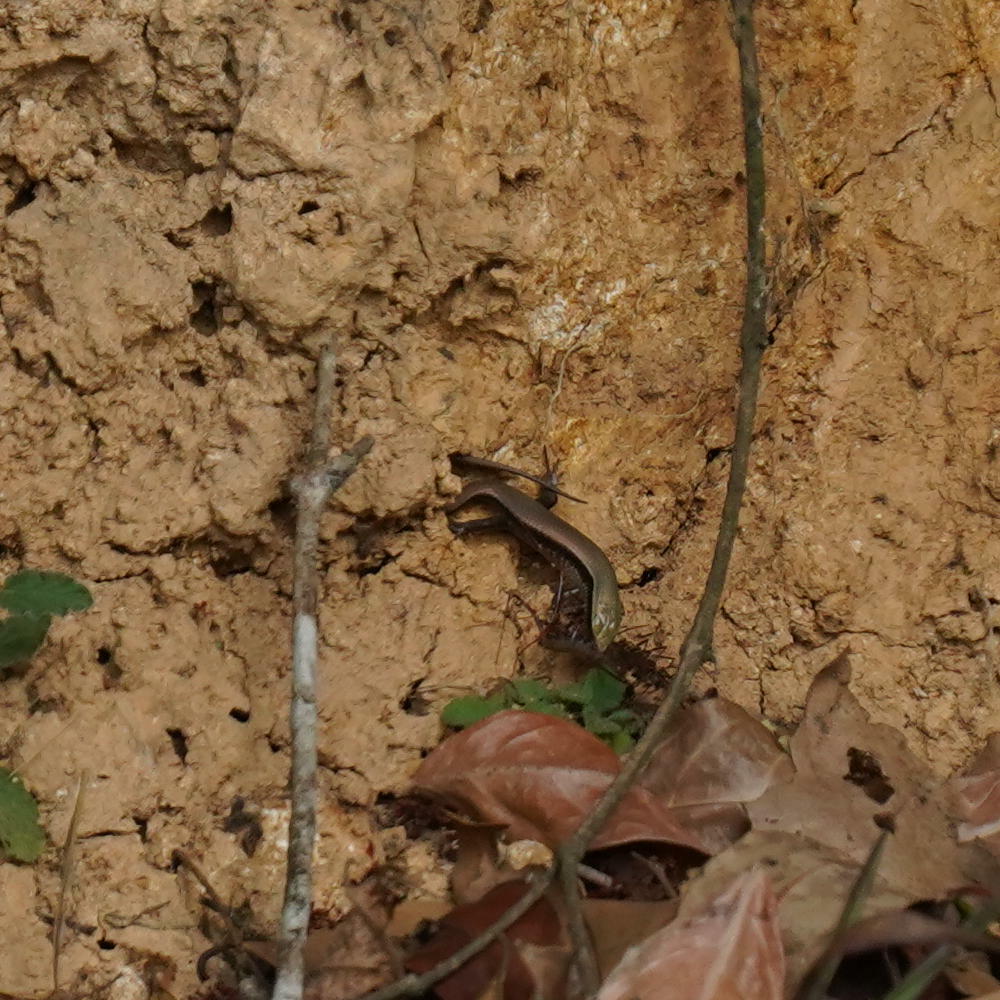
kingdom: Animalia
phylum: Chordata
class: Squamata
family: Scincidae
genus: Eutropis
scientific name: Eutropis macularia
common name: Bronze mabuya
